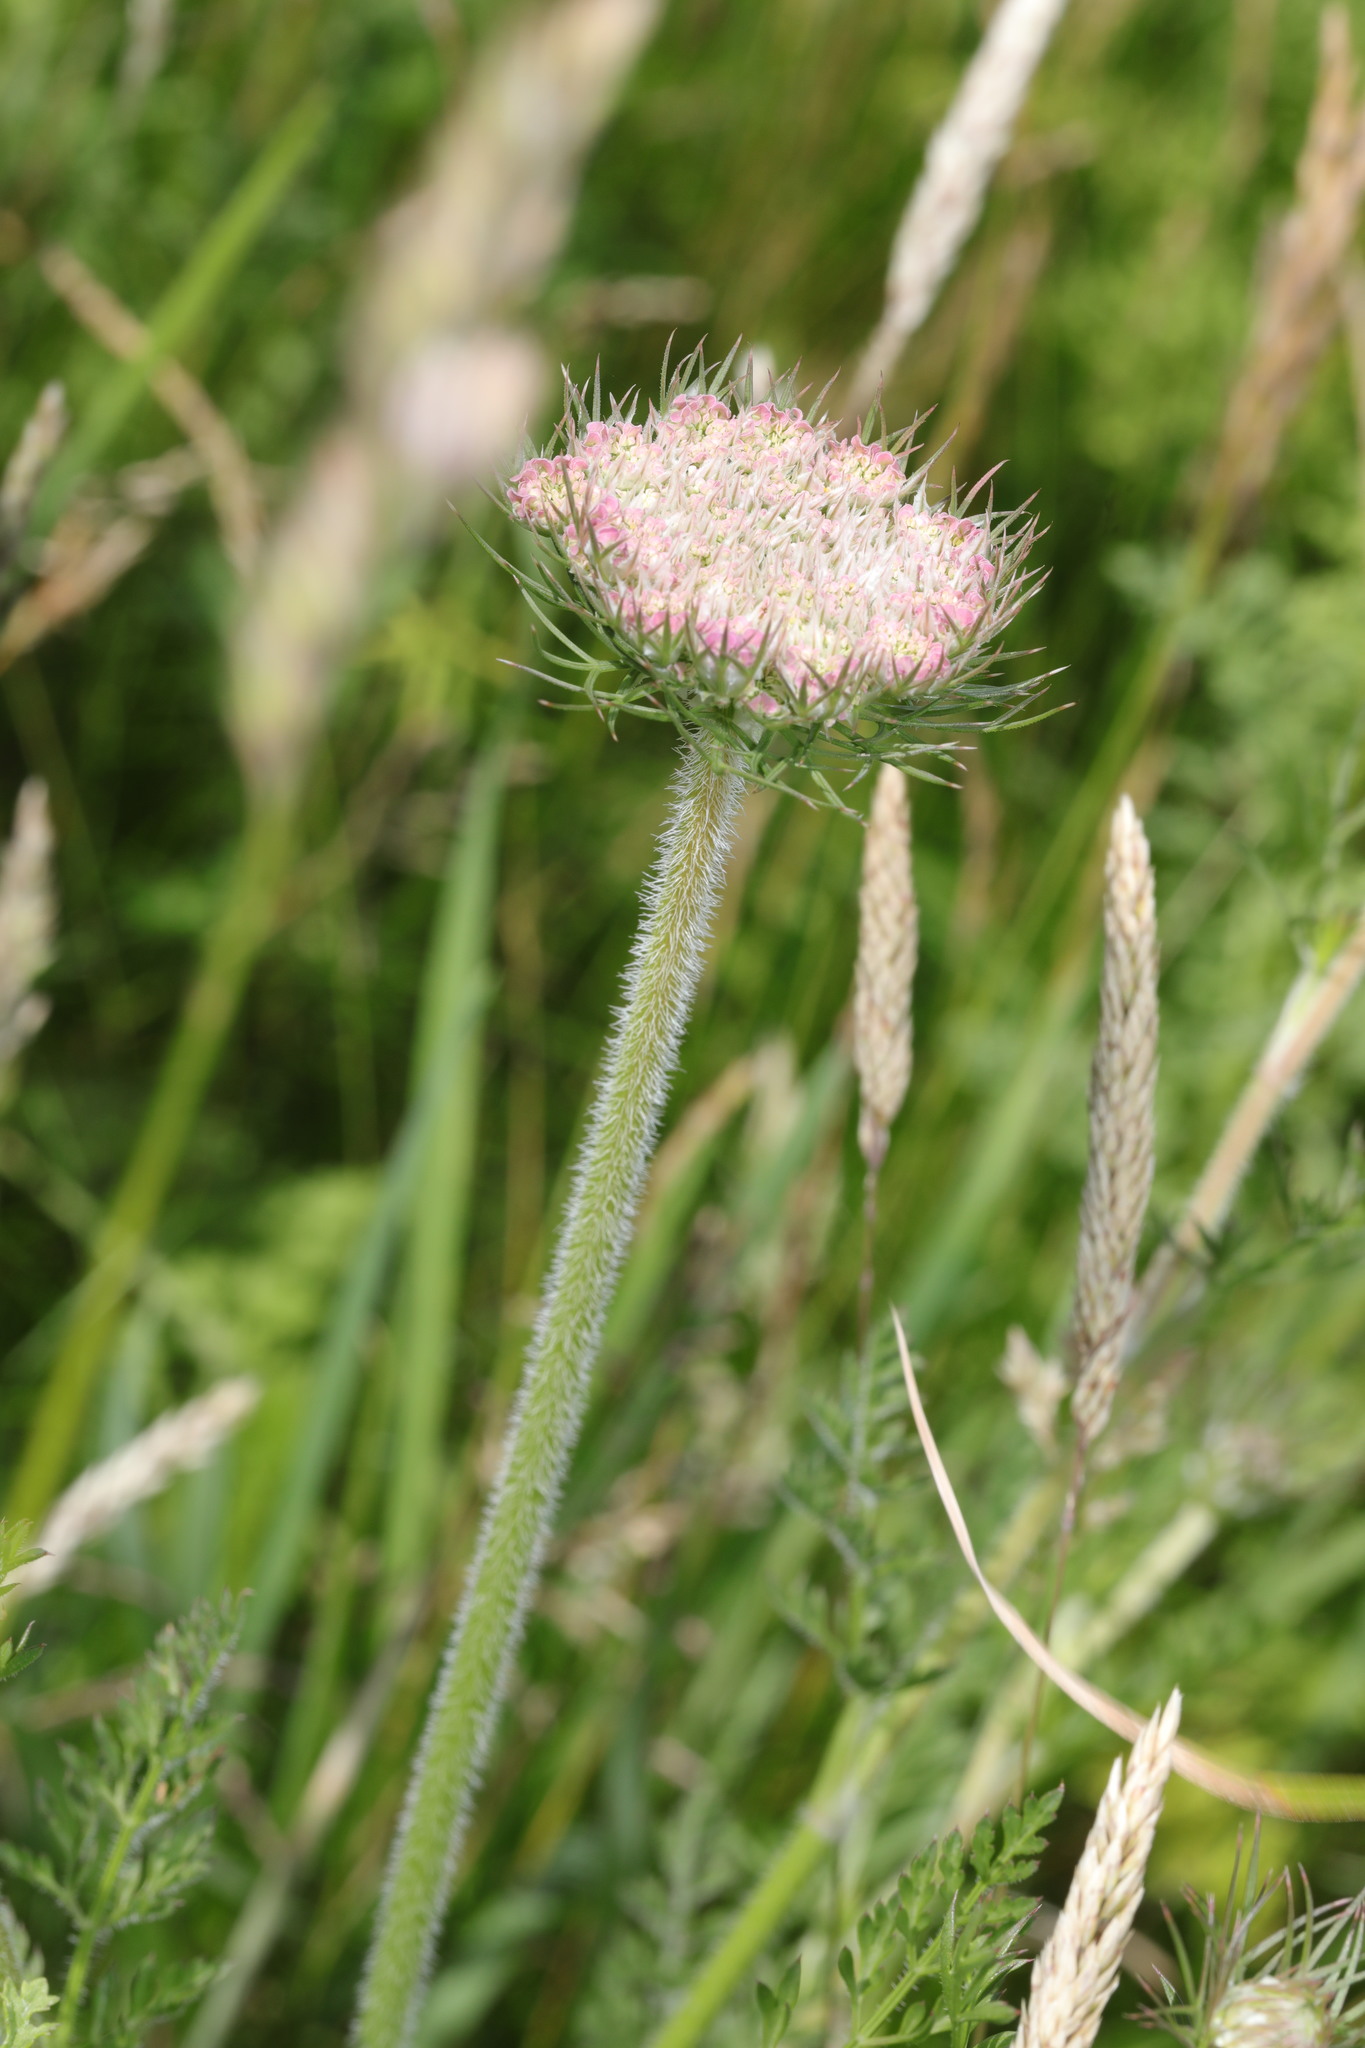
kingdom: Plantae
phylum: Tracheophyta
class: Magnoliopsida
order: Apiales
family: Apiaceae
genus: Daucus
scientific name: Daucus carota
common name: Wild carrot
